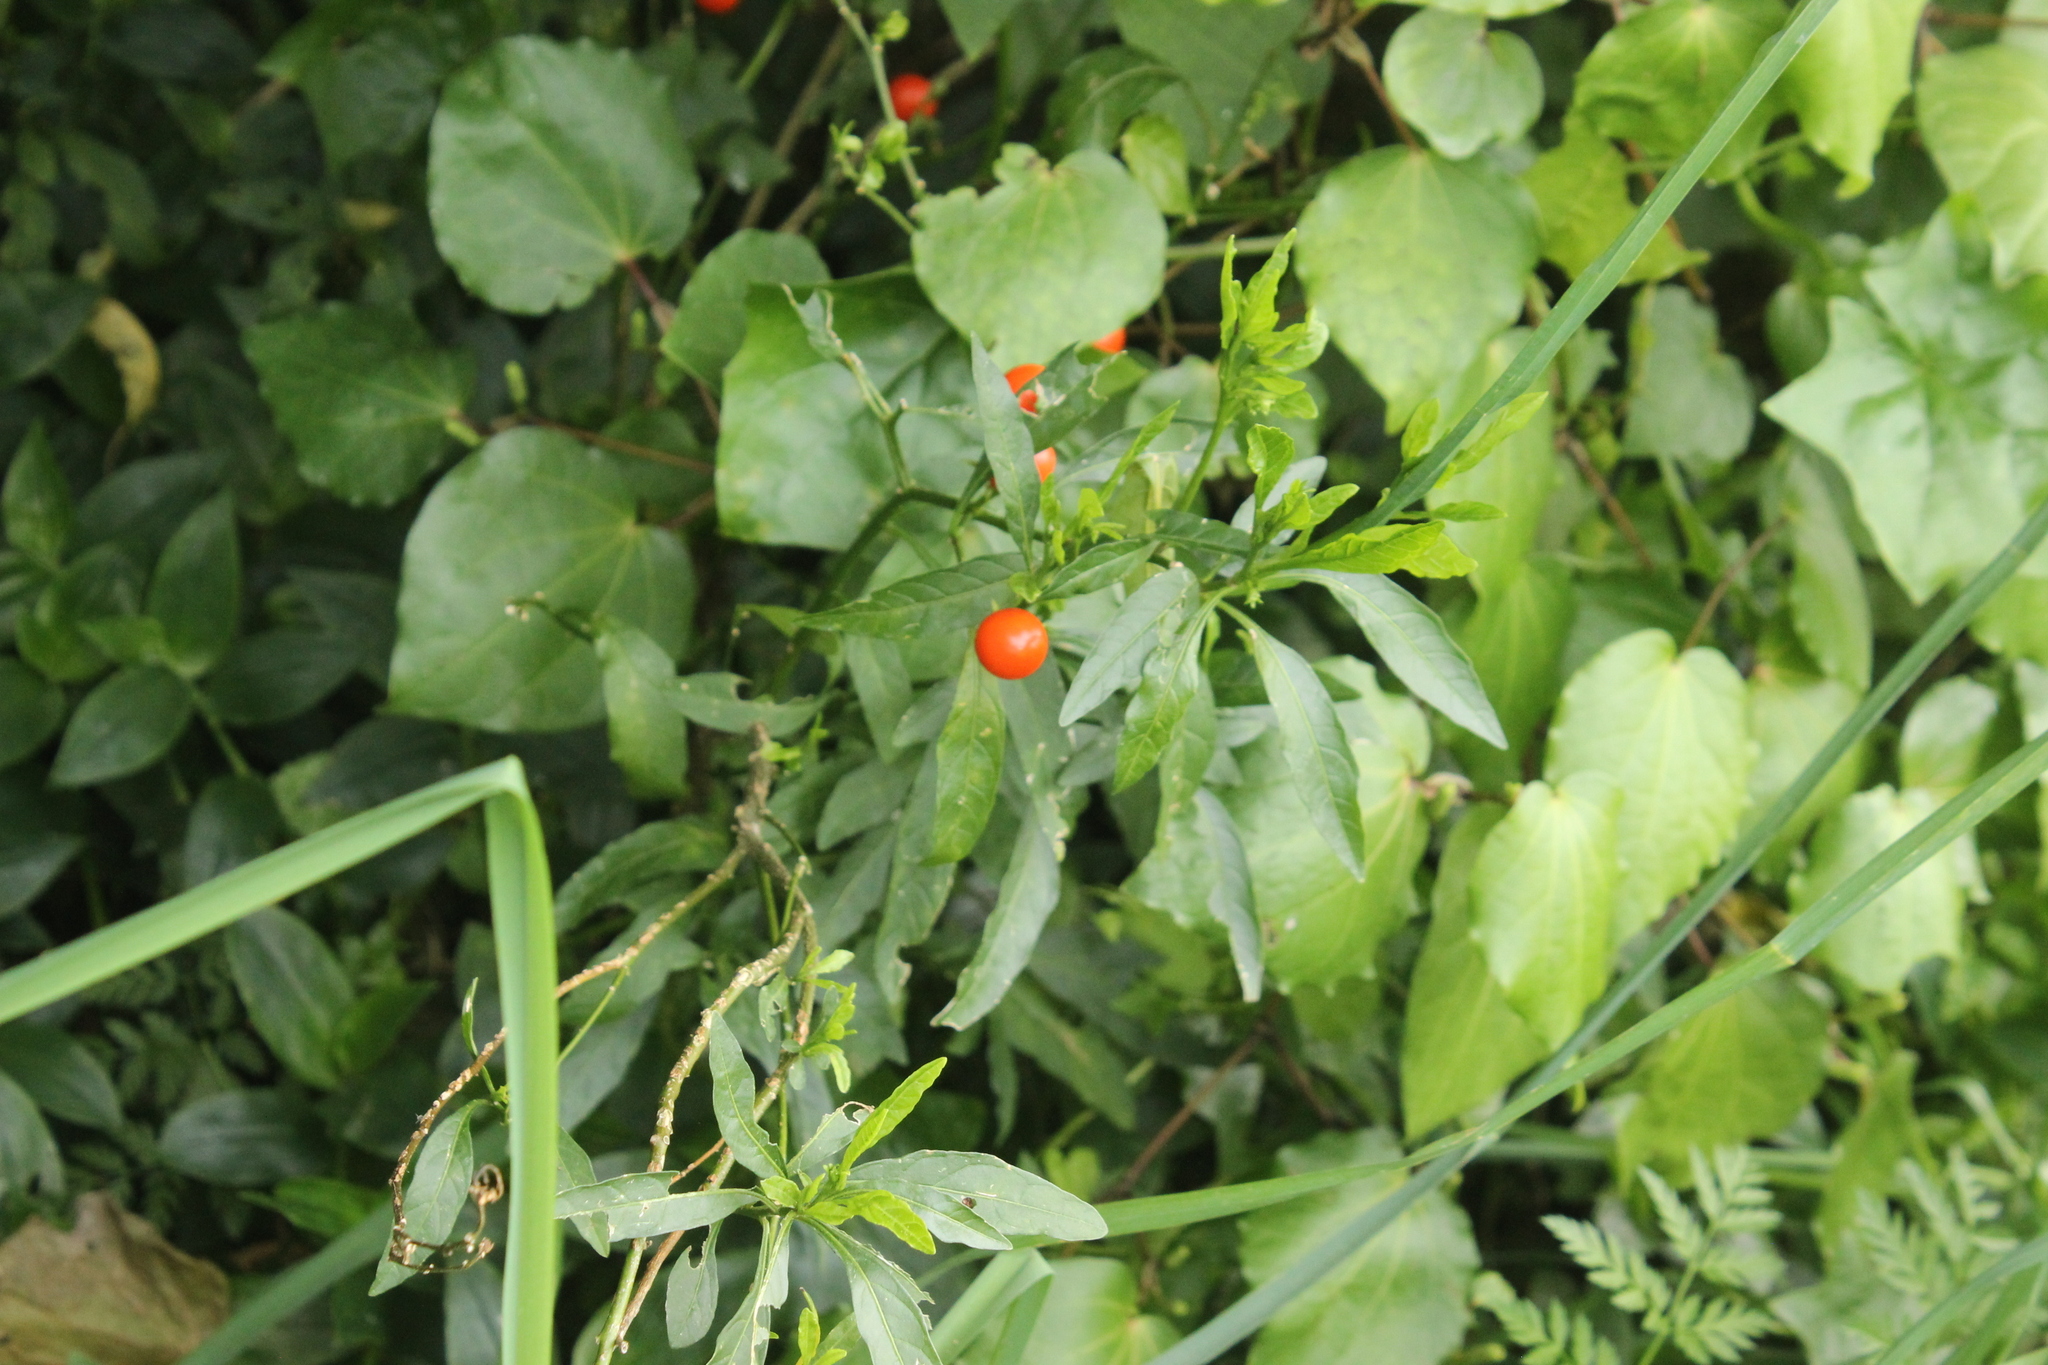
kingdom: Plantae
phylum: Tracheophyta
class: Magnoliopsida
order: Solanales
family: Solanaceae
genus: Solanum
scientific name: Solanum pseudocapsicum
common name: Jerusalem cherry
